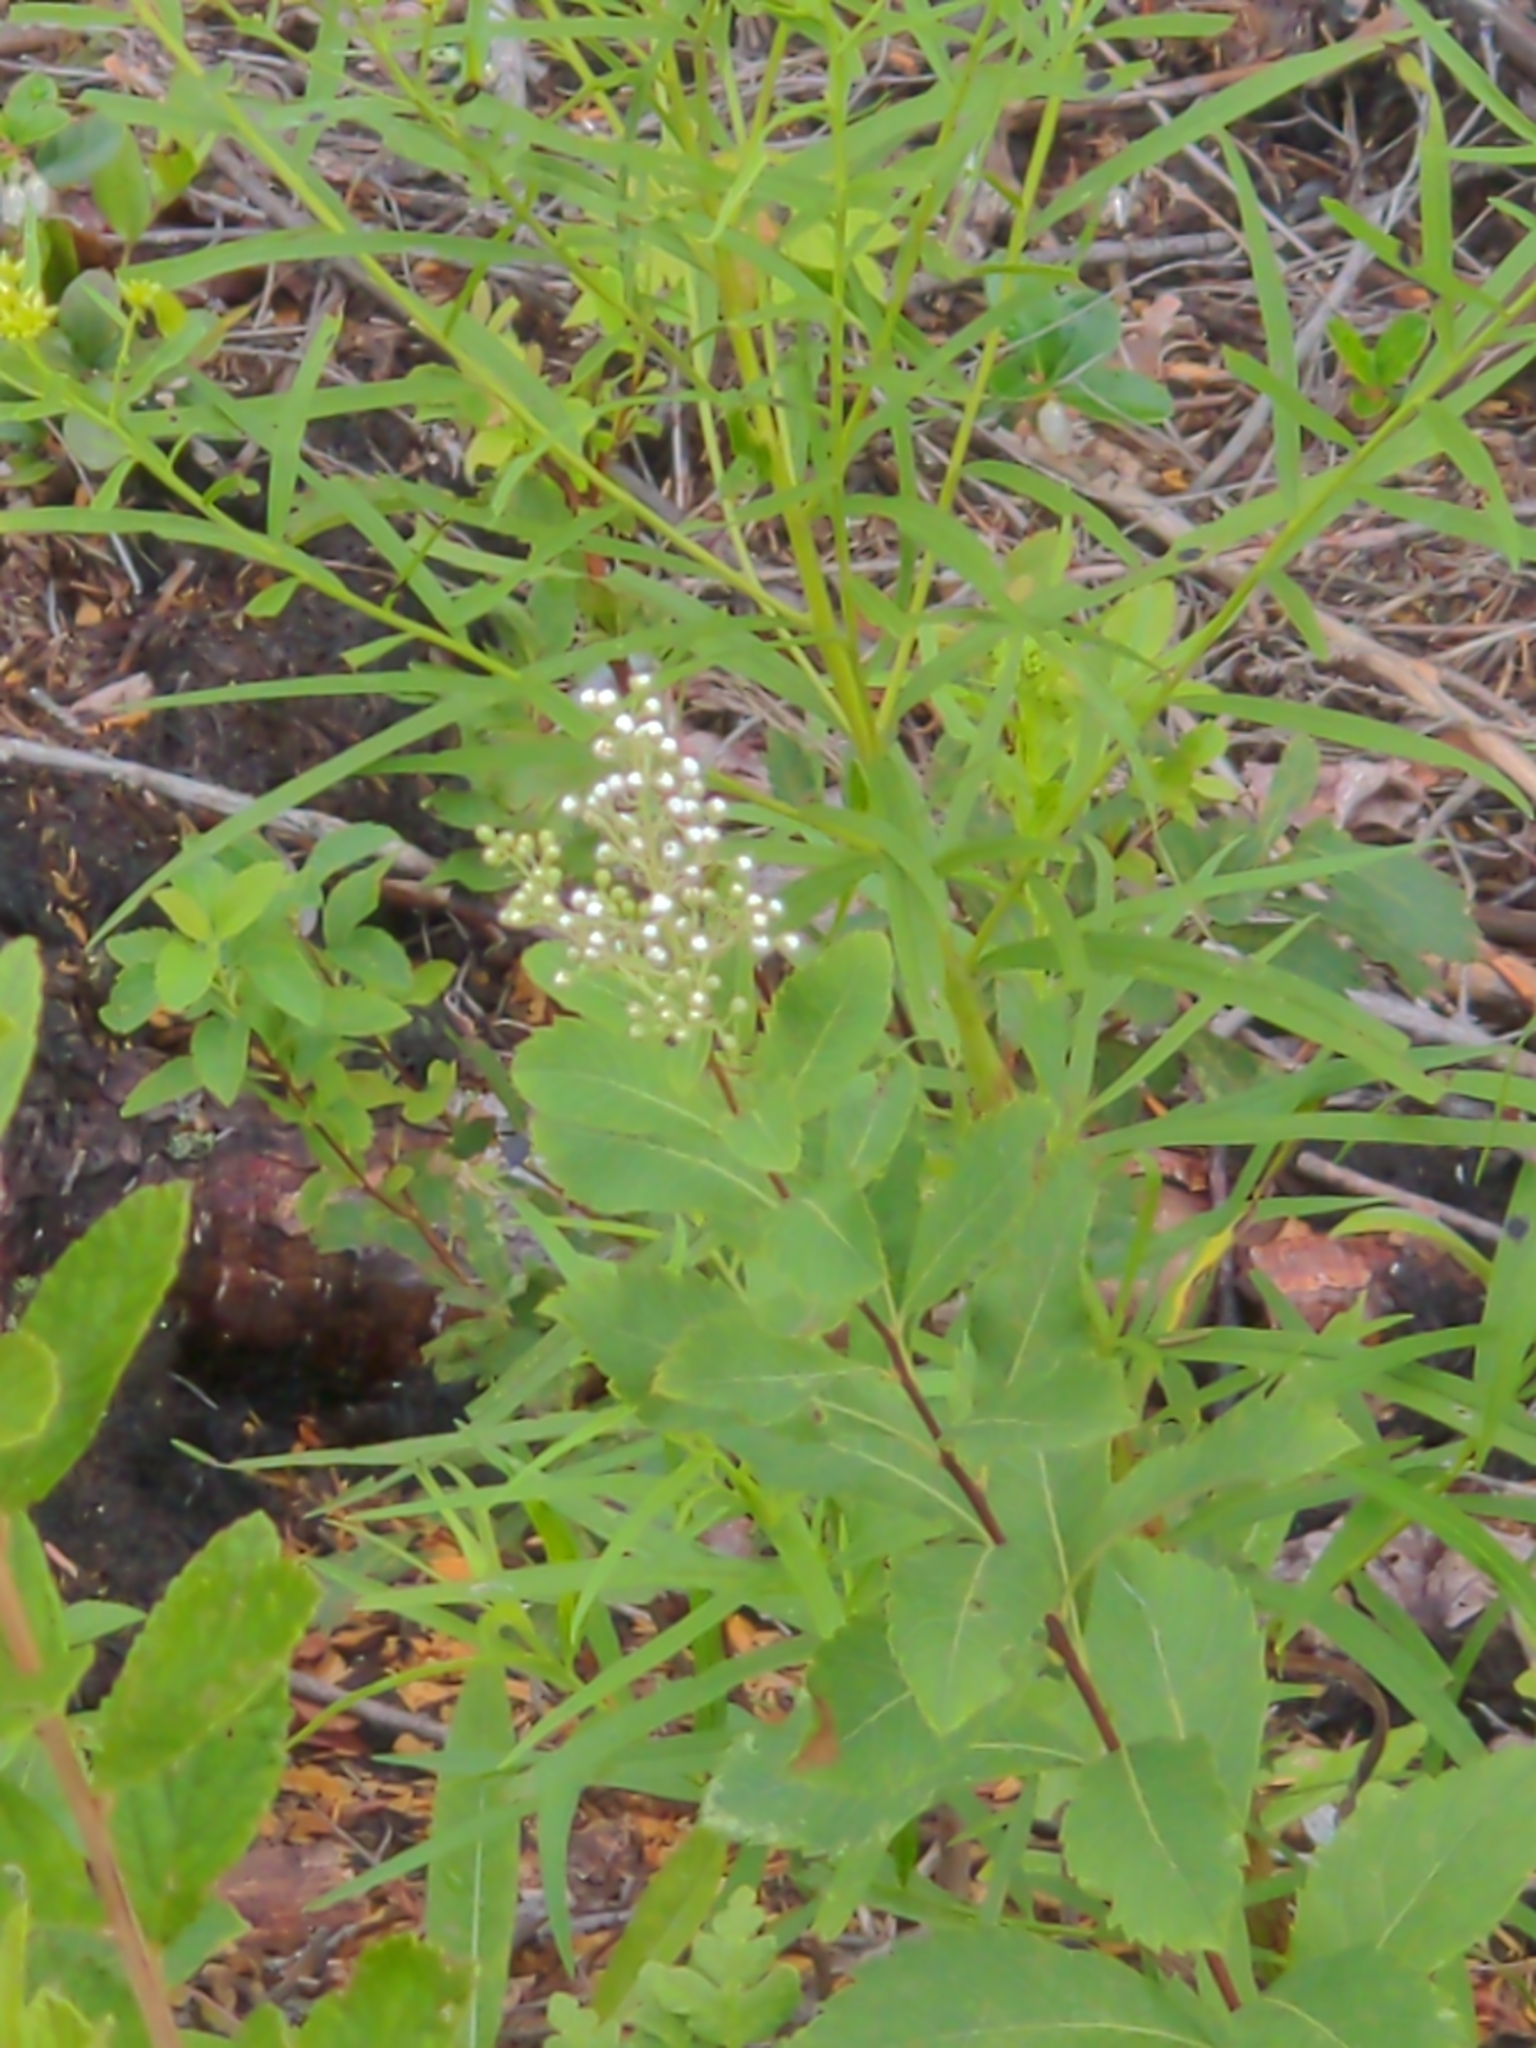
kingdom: Plantae
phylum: Tracheophyta
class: Magnoliopsida
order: Rosales
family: Rosaceae
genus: Spiraea
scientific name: Spiraea alba
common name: Pale bridewort
